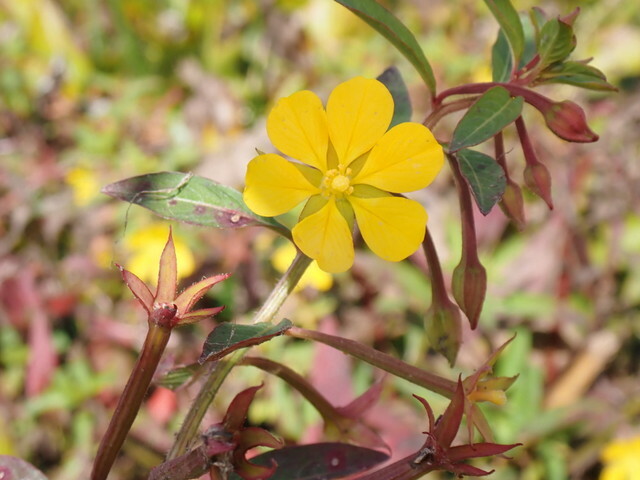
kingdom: Plantae
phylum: Tracheophyta
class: Magnoliopsida
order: Myrtales
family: Onagraceae
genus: Ludwigia
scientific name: Ludwigia leptocarpa
